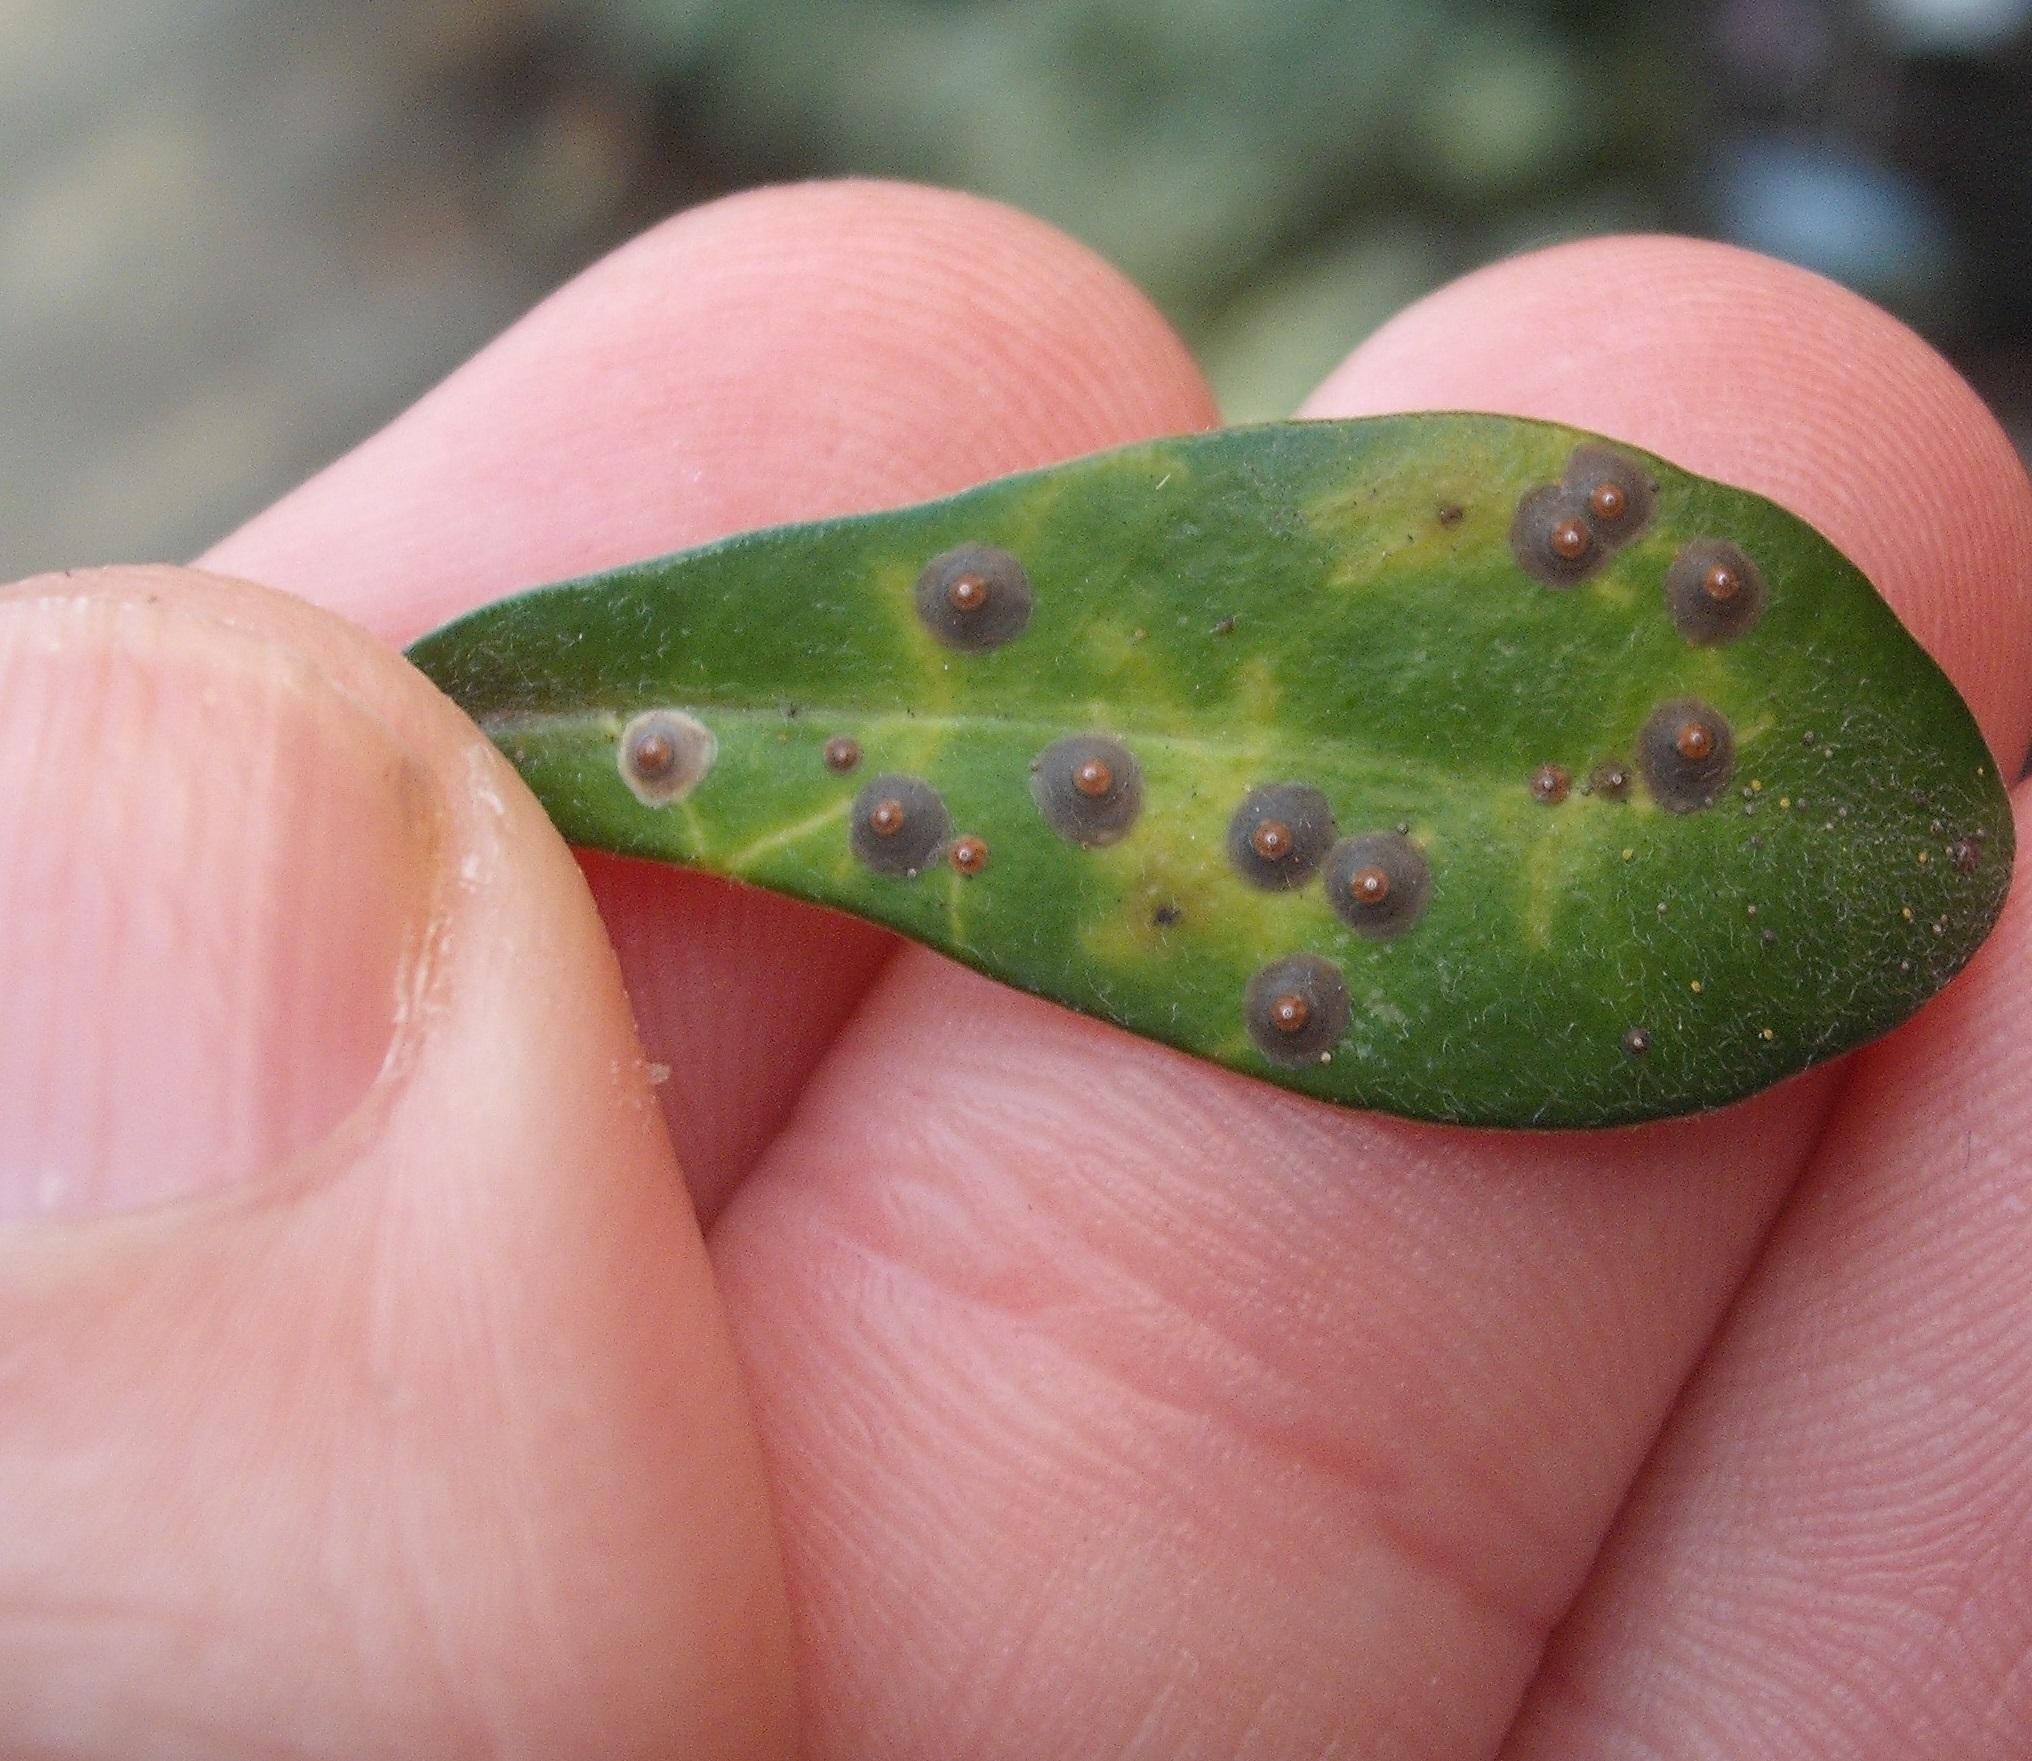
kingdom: Animalia
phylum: Arthropoda
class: Insecta
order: Hemiptera
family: Diaspididae
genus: Chrysomphalus
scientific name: Chrysomphalus pinnulifer
